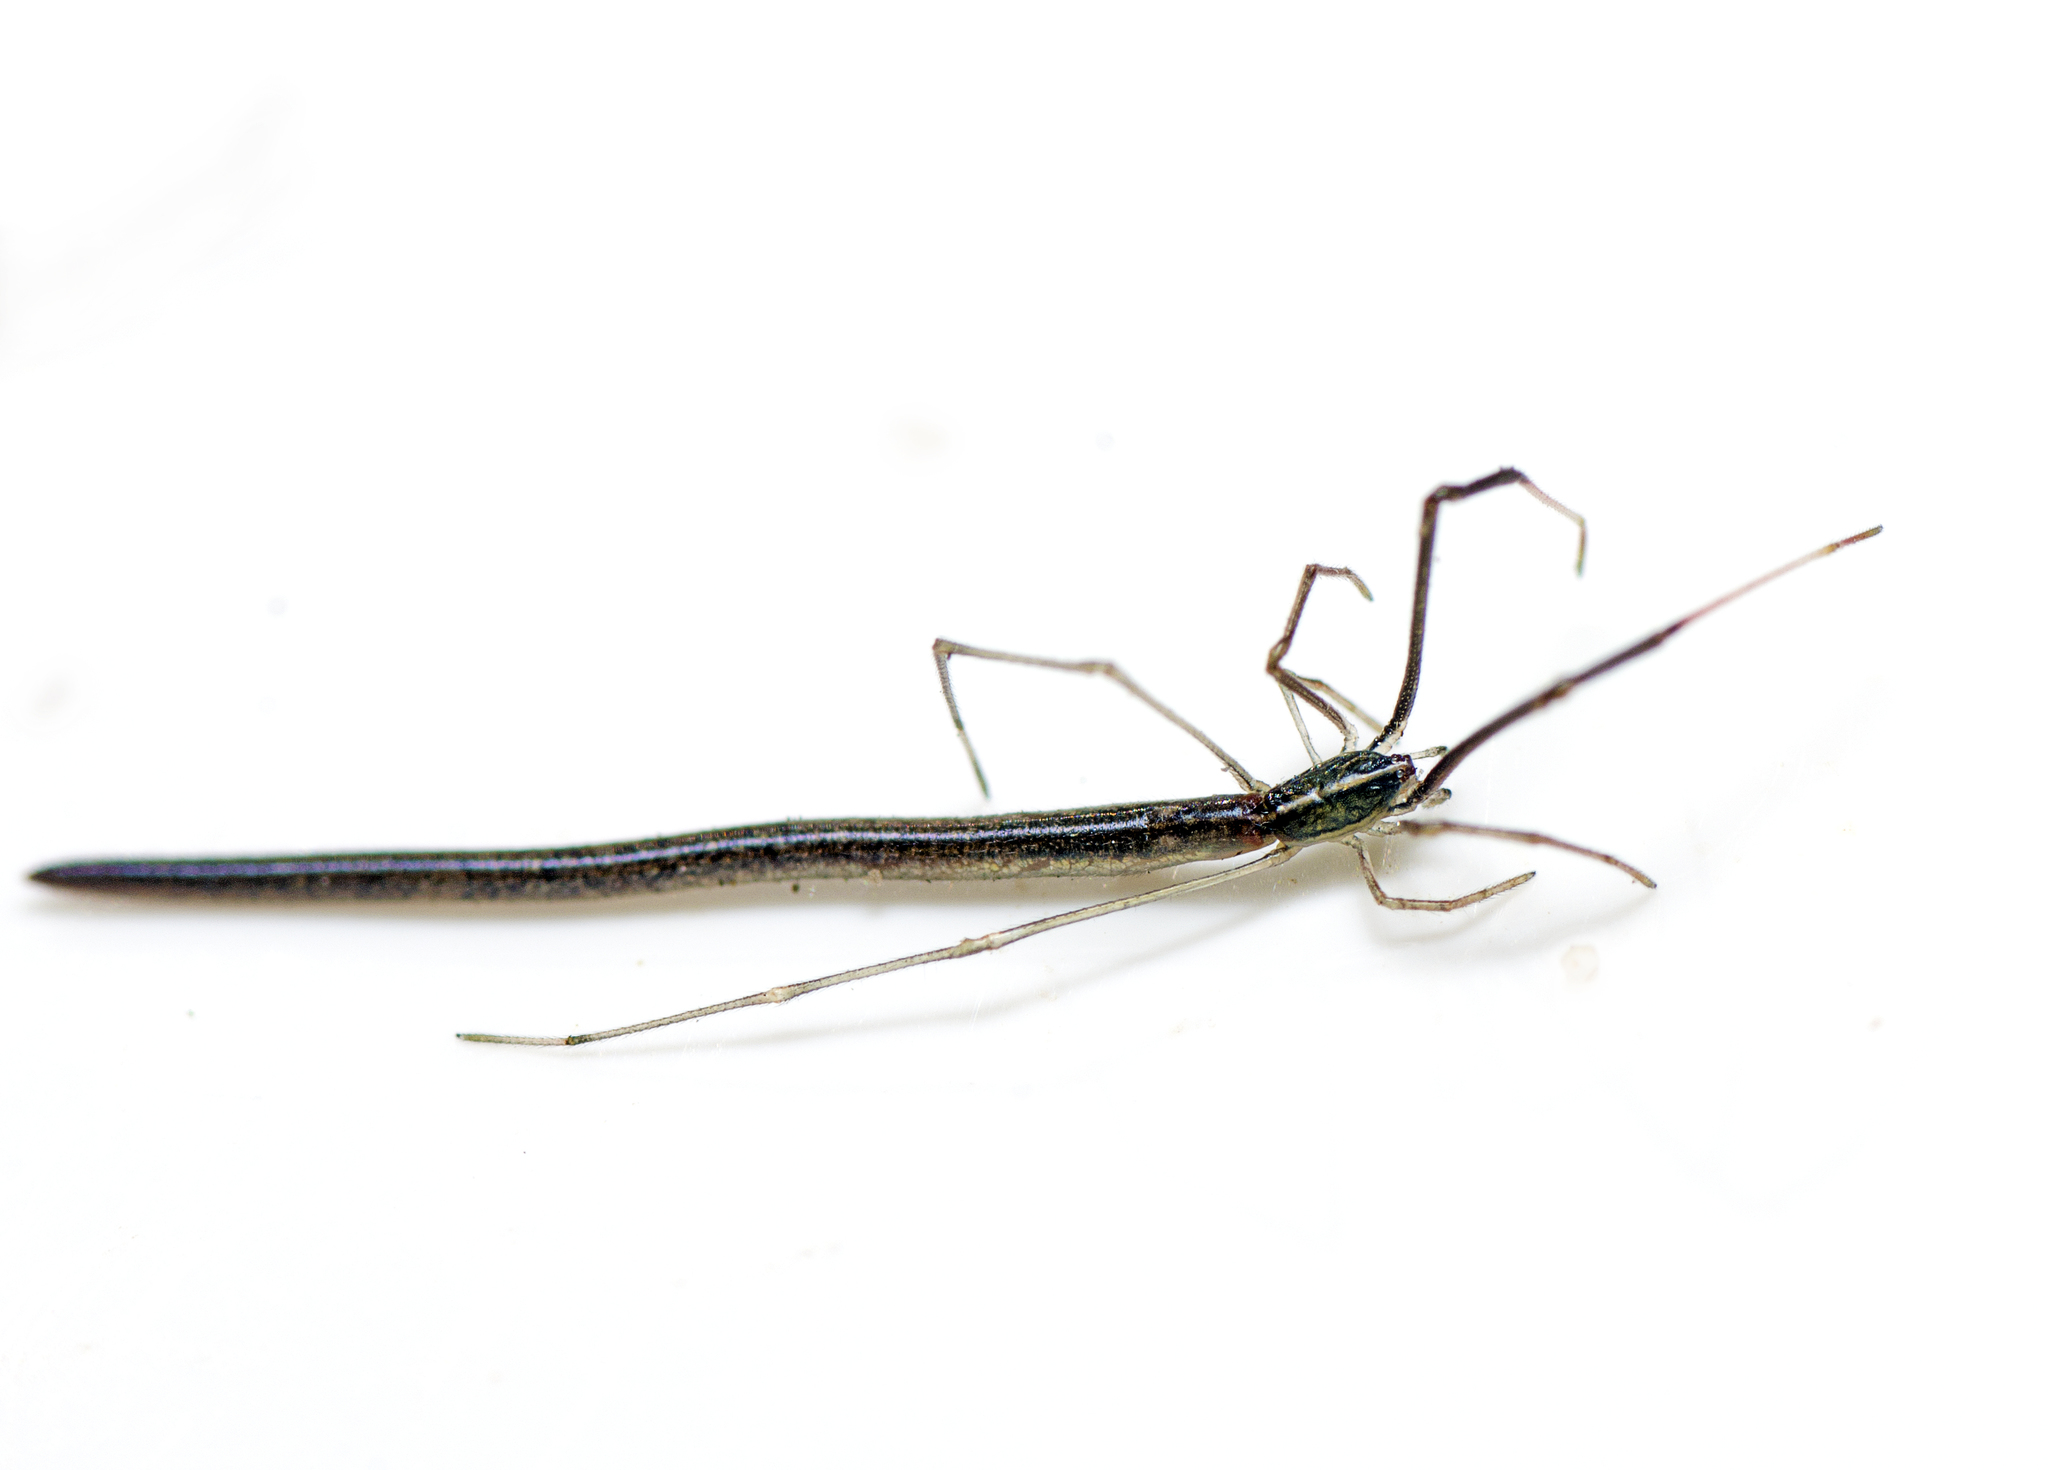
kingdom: Animalia
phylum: Arthropoda
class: Arachnida
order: Araneae
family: Theridiidae
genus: Ariamnes
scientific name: Ariamnes colubrinus
